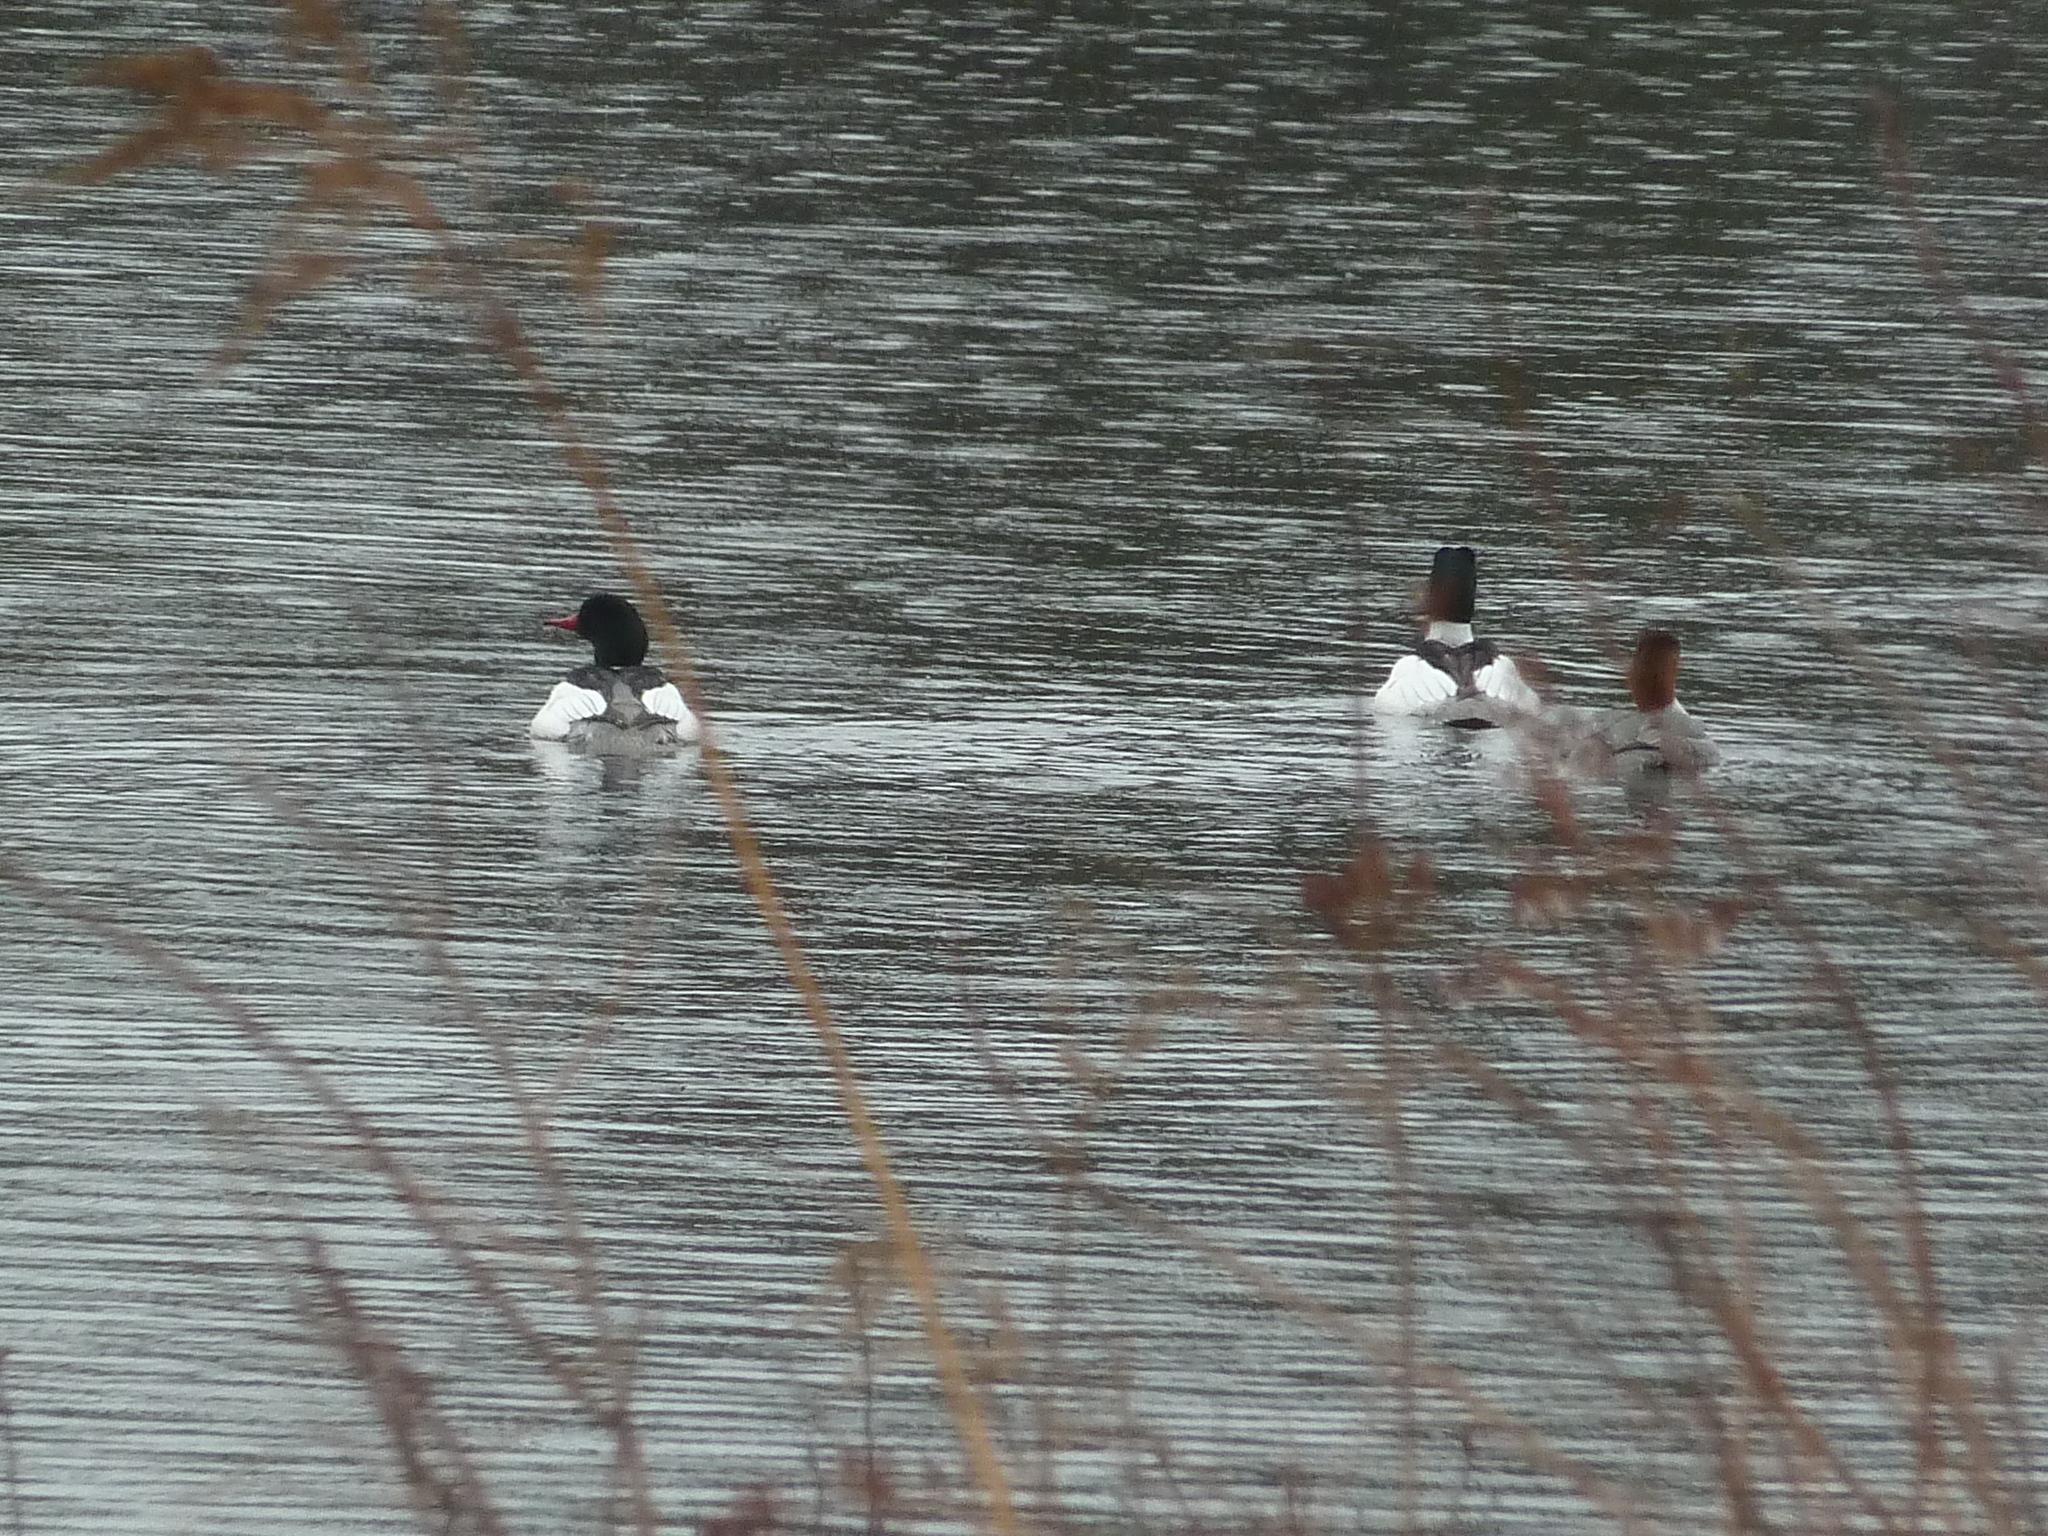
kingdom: Animalia
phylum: Chordata
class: Aves
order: Anseriformes
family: Anatidae
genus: Mergus
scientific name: Mergus merganser
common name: Common merganser
